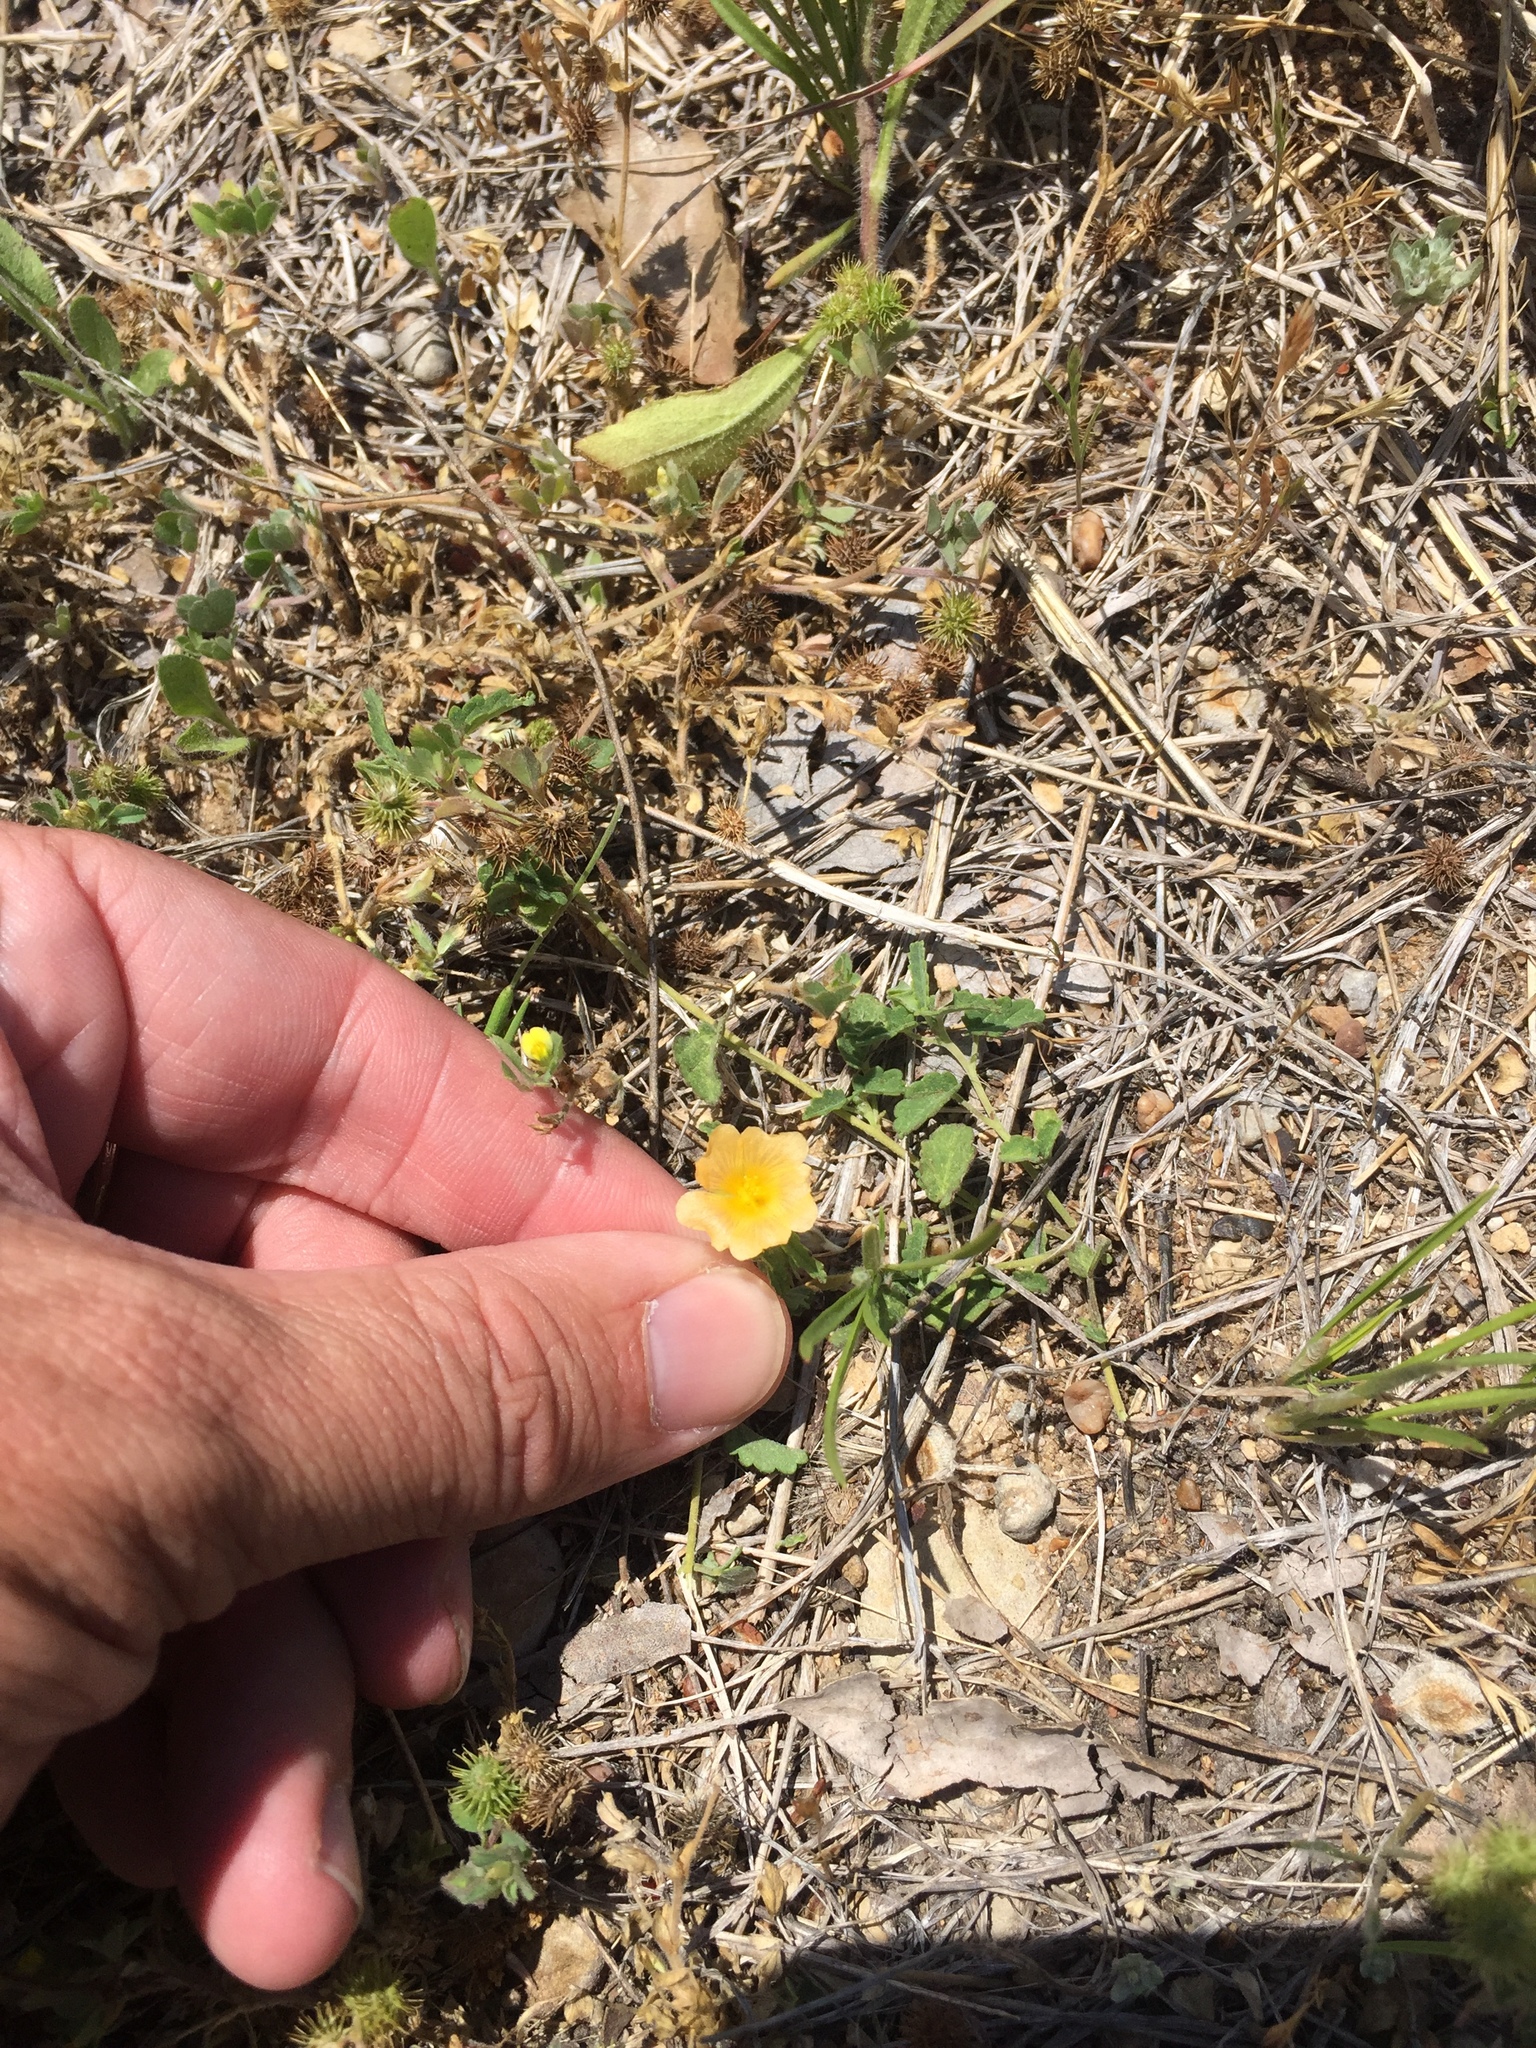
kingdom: Plantae
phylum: Tracheophyta
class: Magnoliopsida
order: Malvales
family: Malvaceae
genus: Sida
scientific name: Sida abutilifolia
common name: Spreading fanpetals
